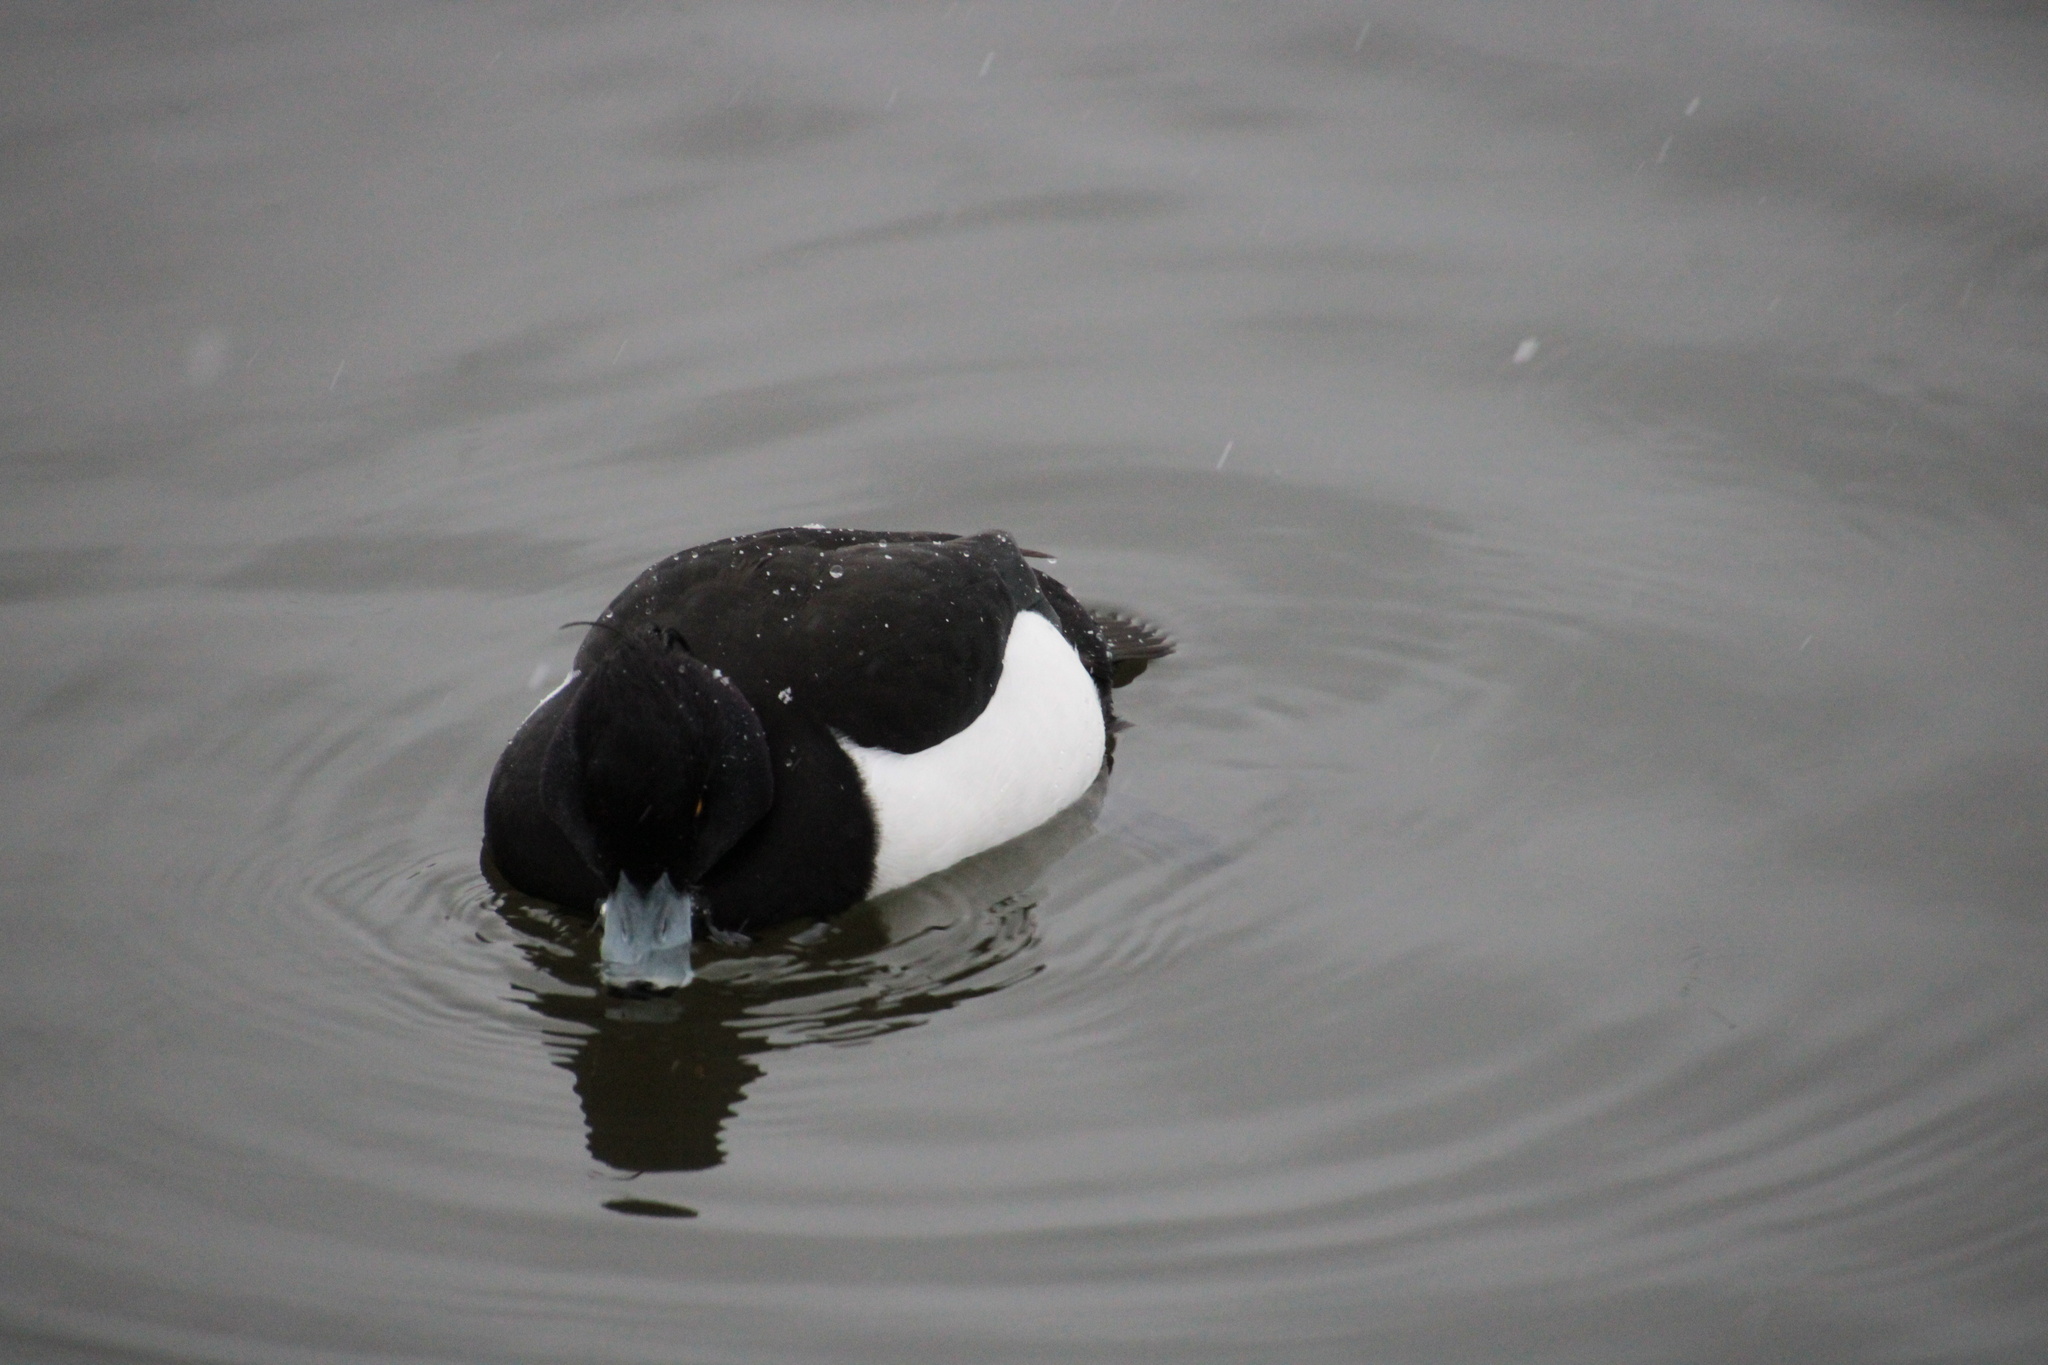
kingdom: Animalia
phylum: Chordata
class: Aves
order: Anseriformes
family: Anatidae
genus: Aythya
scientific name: Aythya fuligula
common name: Tufted duck
